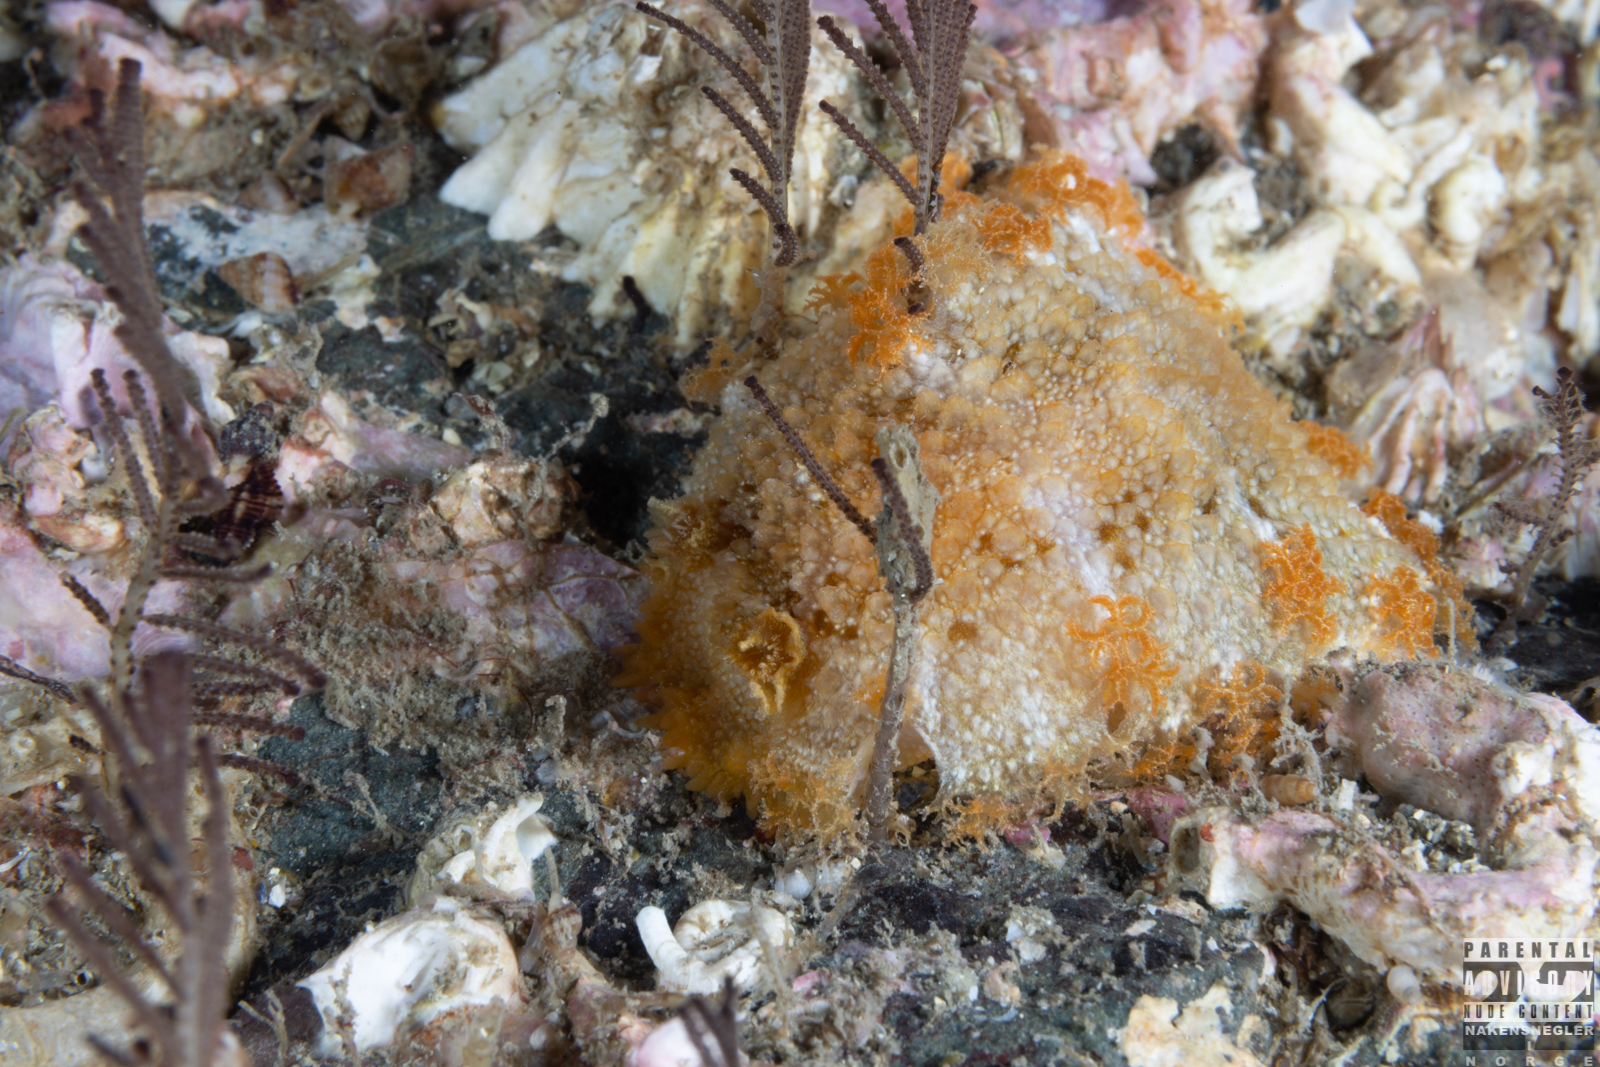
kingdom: Animalia
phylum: Mollusca
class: Gastropoda
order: Nudibranchia
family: Tritoniidae
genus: Tritonia
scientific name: Tritonia hombergii
